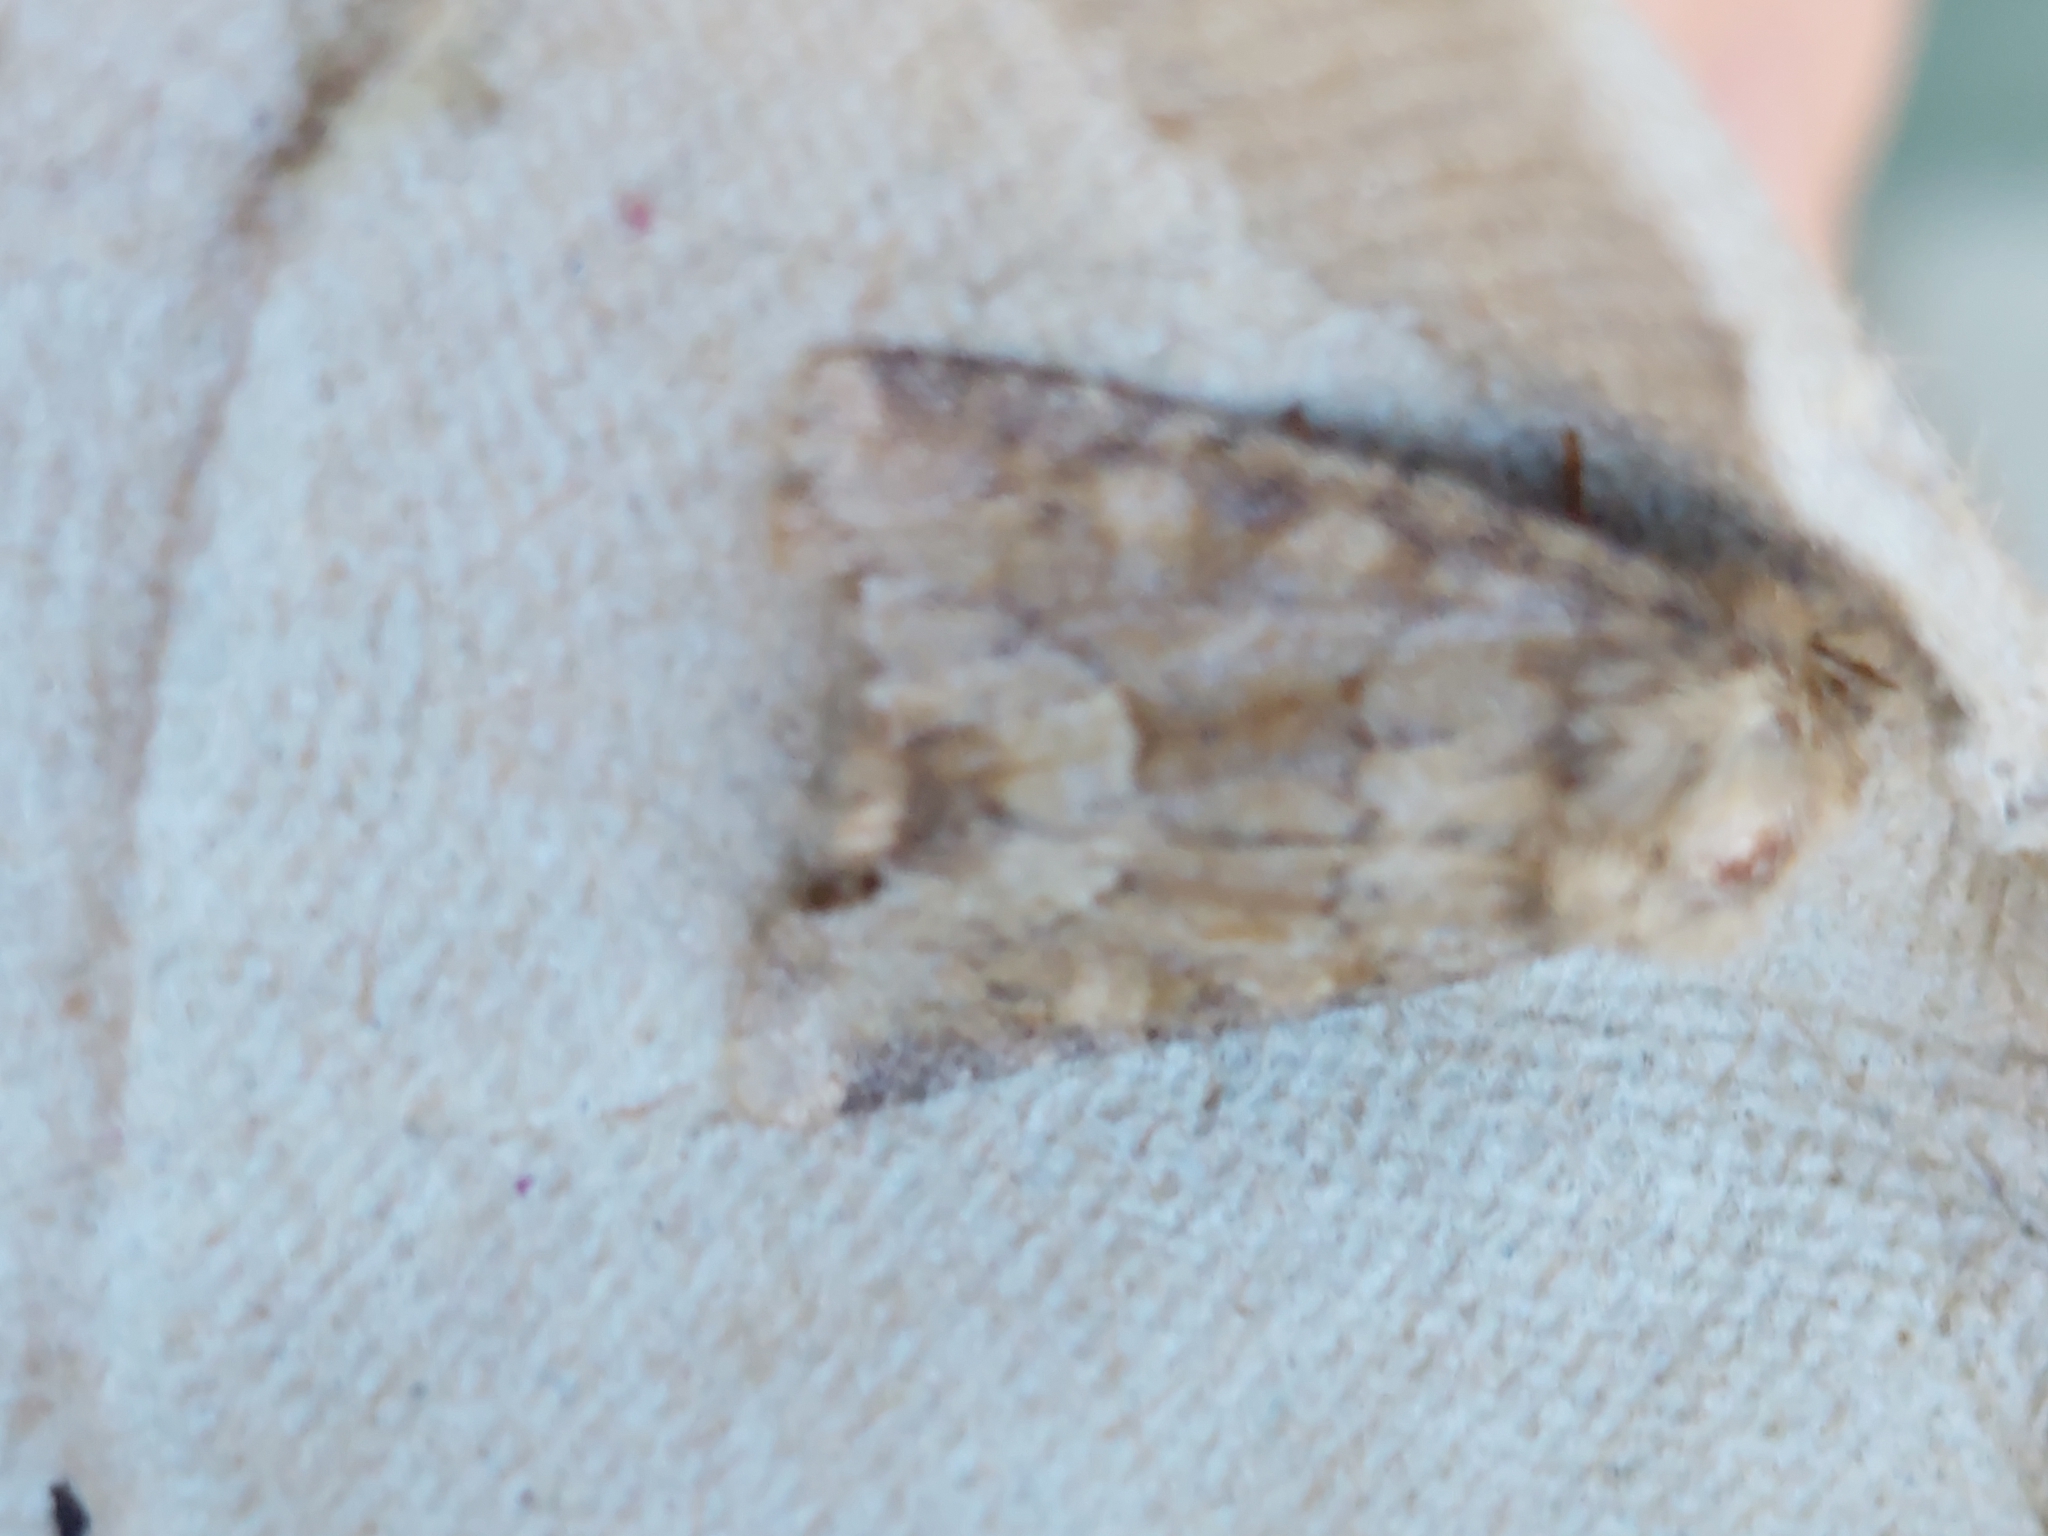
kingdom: Animalia
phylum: Arthropoda
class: Insecta
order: Lepidoptera
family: Noctuidae
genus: Oligia
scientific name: Oligia fasciuncula
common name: Middle-barred minor
